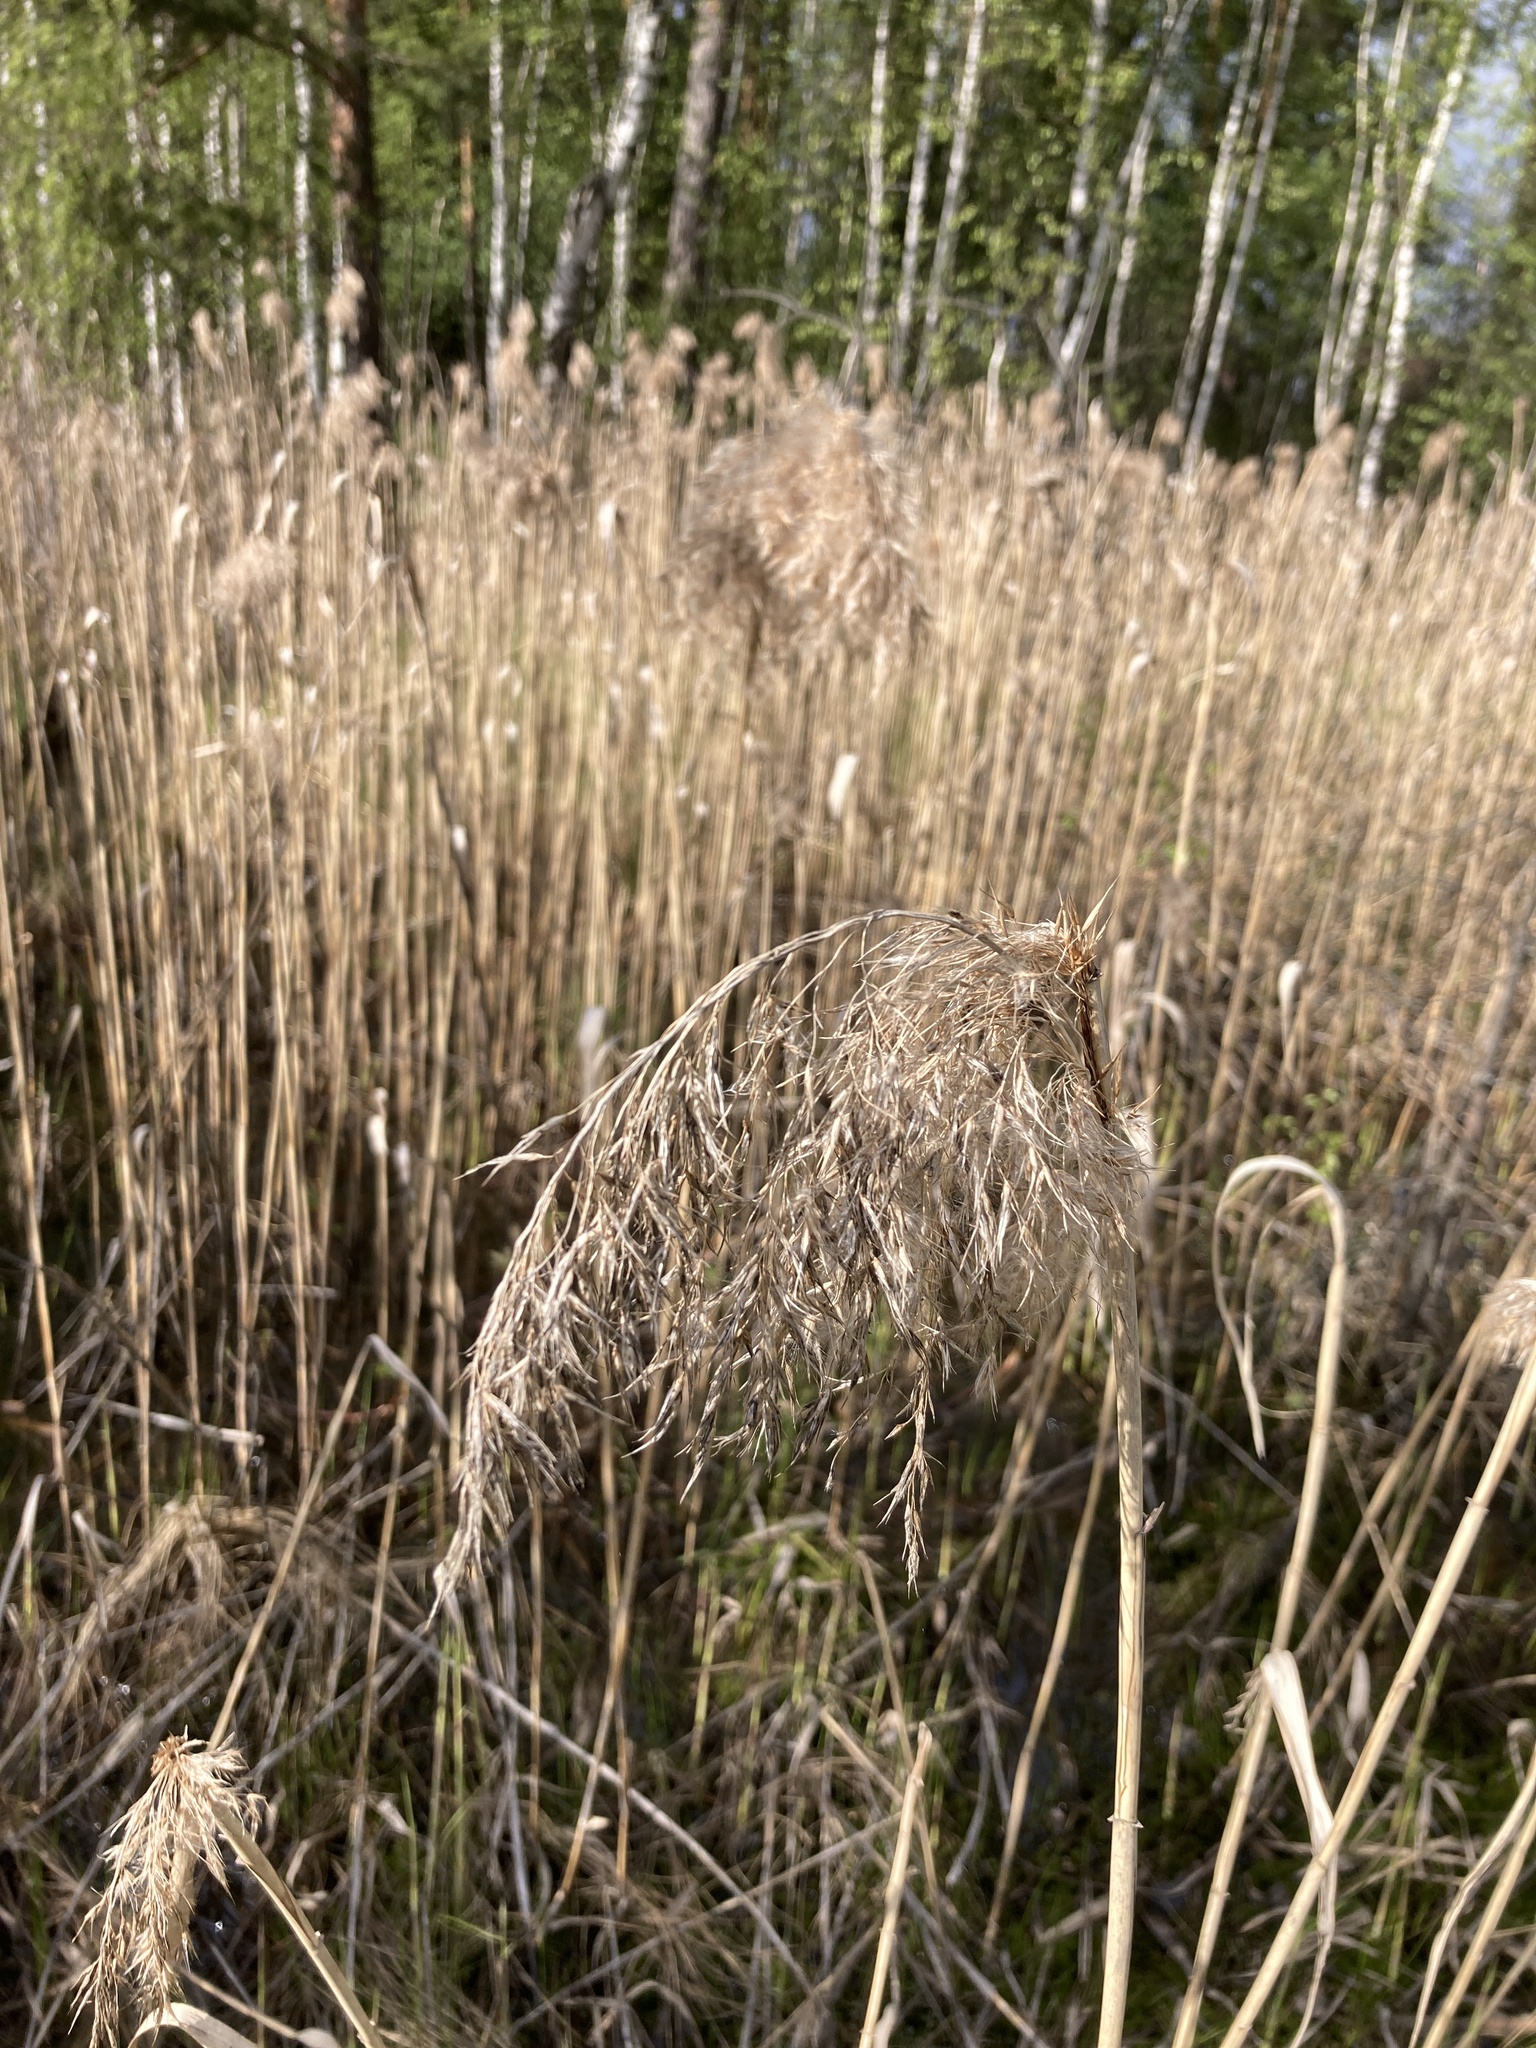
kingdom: Plantae
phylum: Tracheophyta
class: Liliopsida
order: Poales
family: Poaceae
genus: Phragmites
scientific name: Phragmites australis
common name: Common reed
